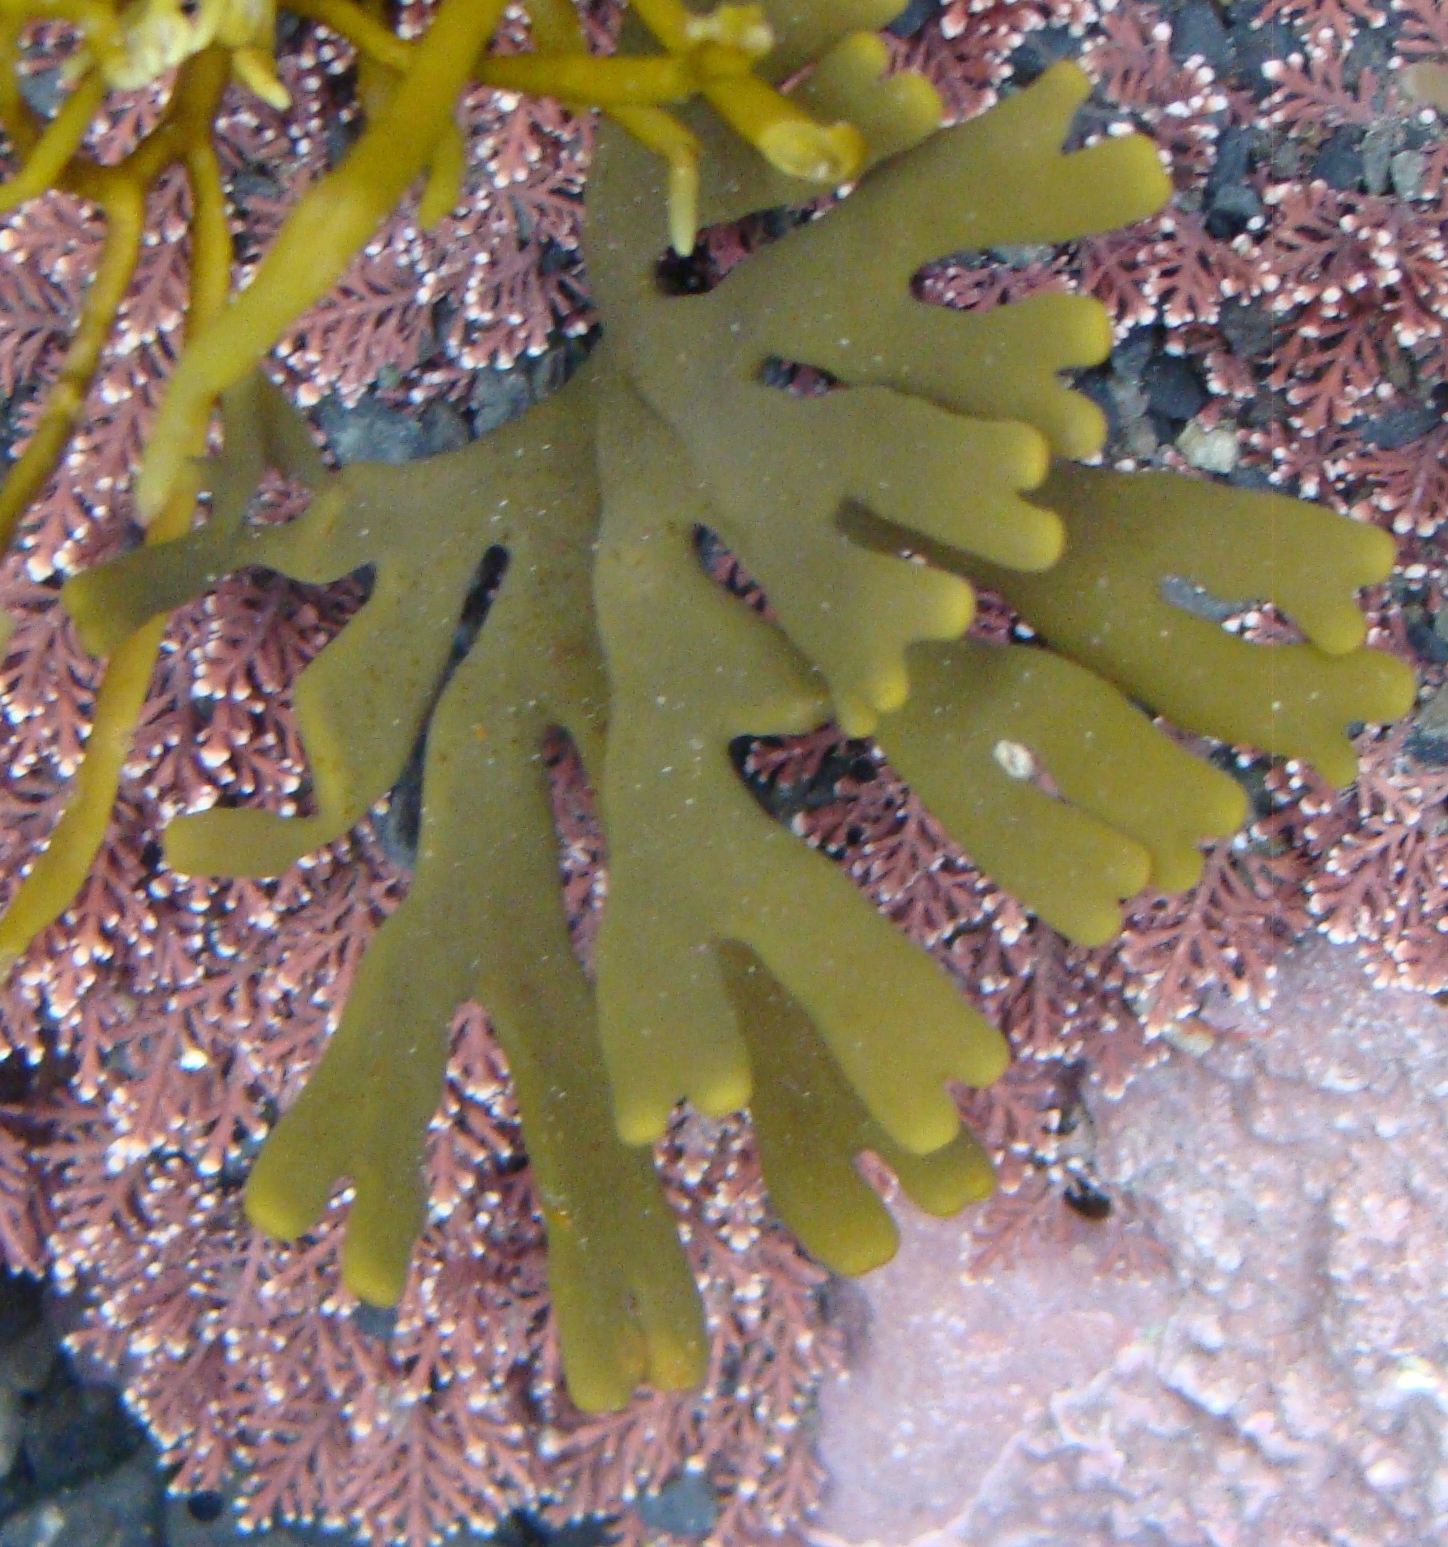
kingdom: Chromista
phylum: Ochrophyta
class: Phaeophyceae
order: Fucales
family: Xiphophoraceae
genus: Xiphophora
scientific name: Xiphophora gladiata
